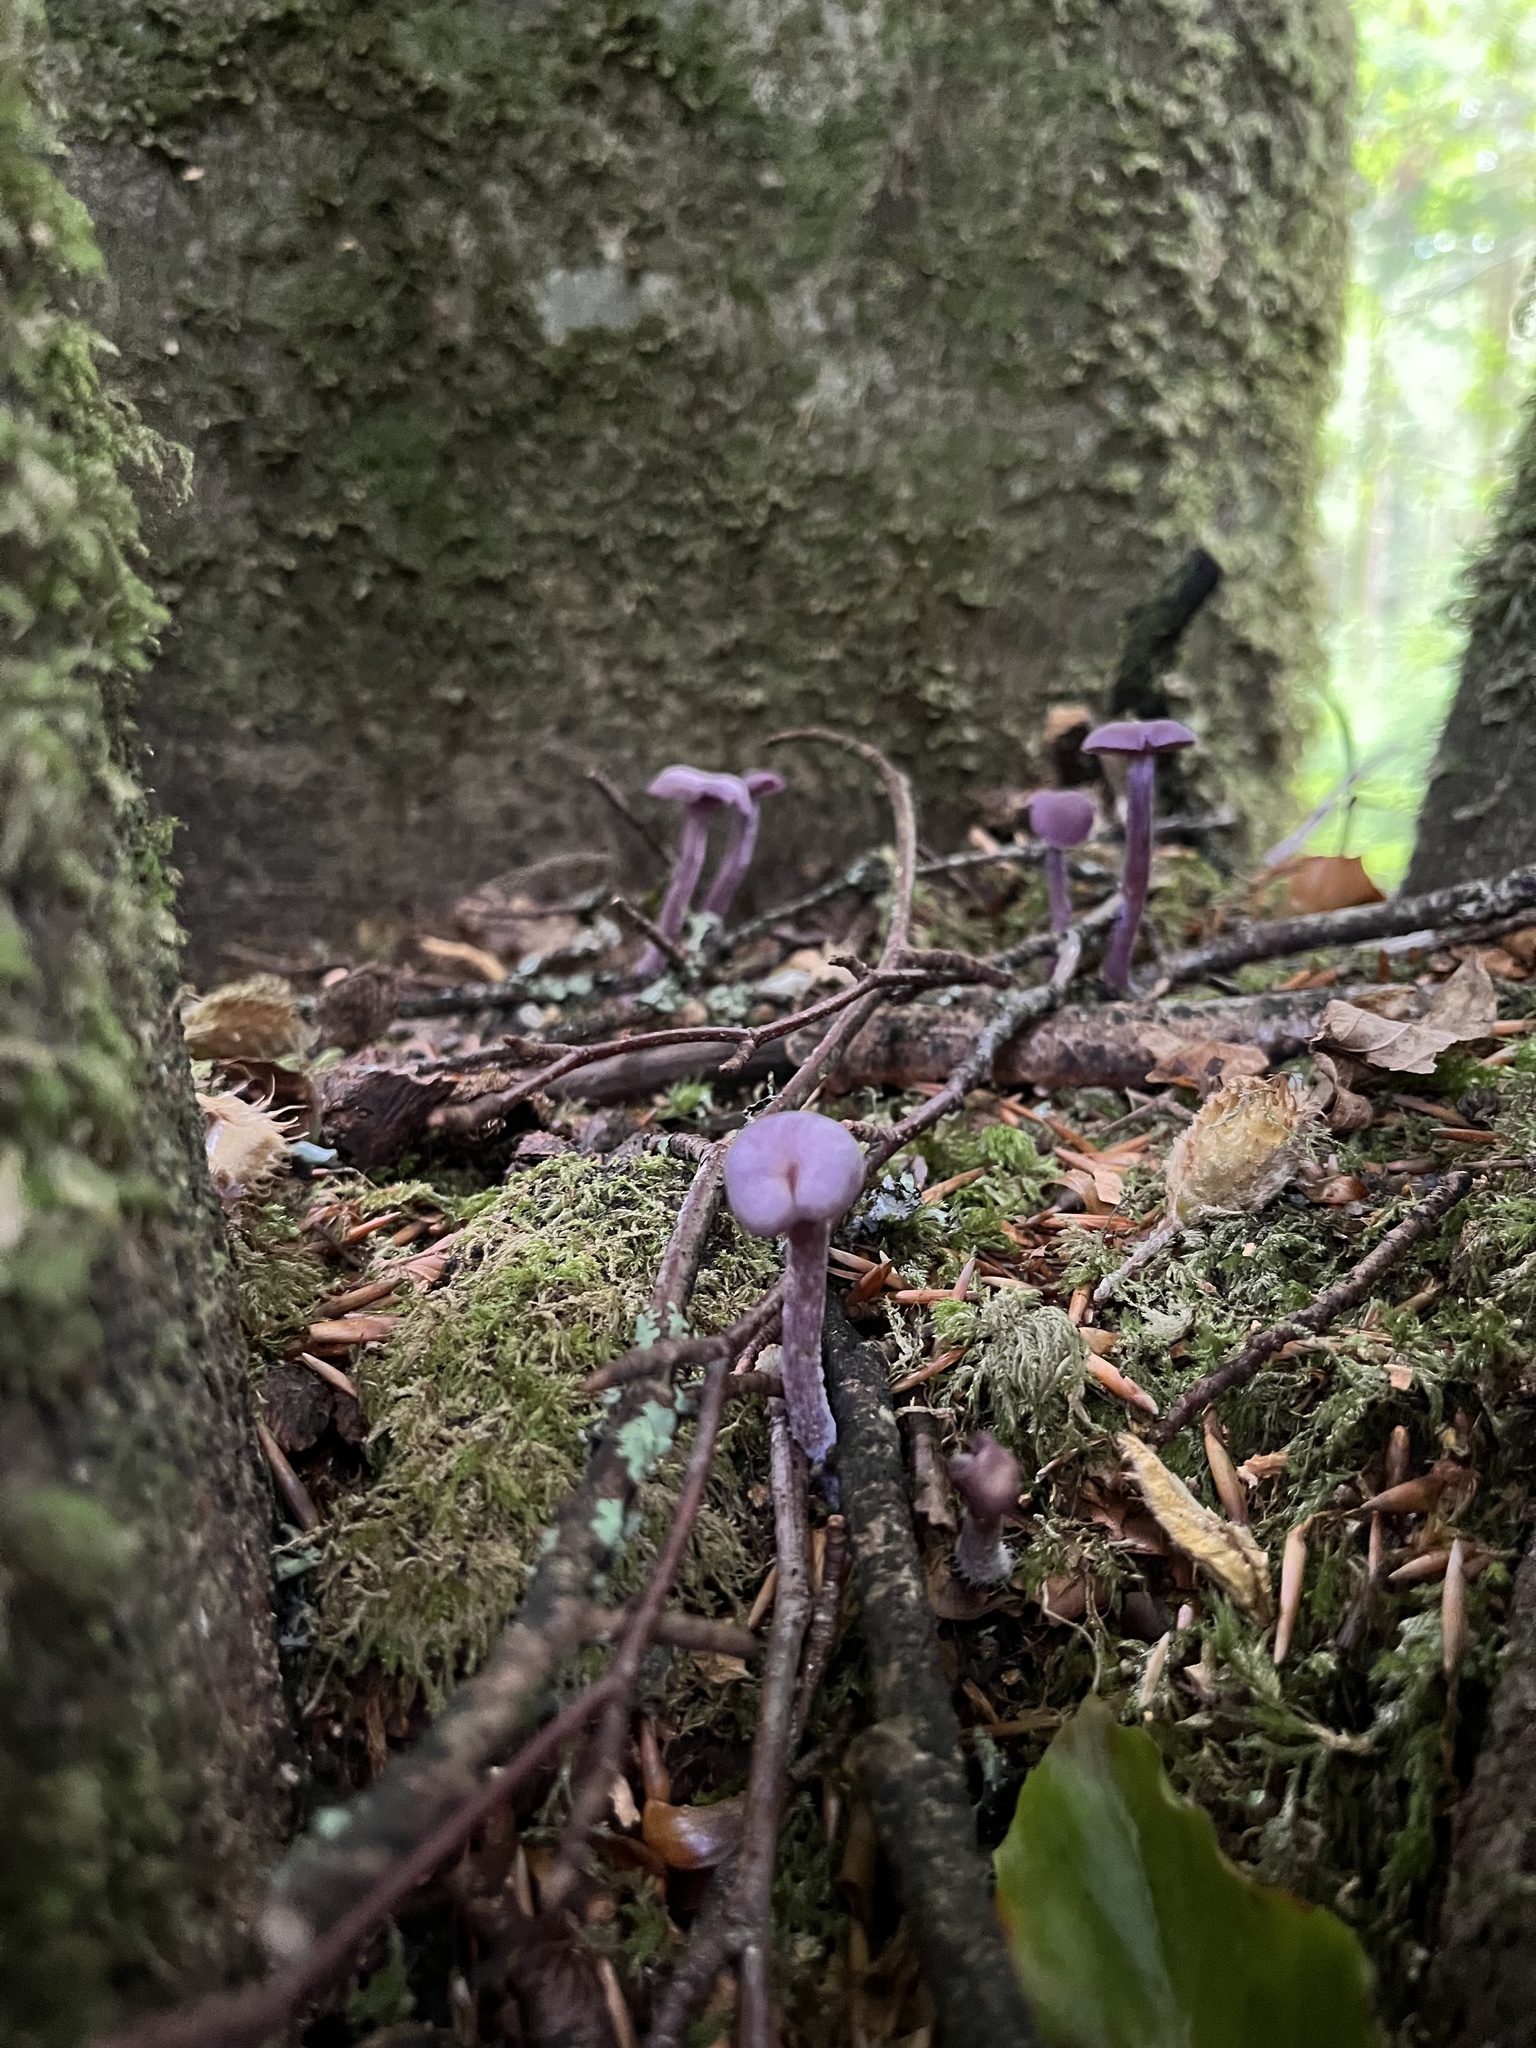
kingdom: Fungi
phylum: Basidiomycota
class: Agaricomycetes
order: Agaricales
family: Hydnangiaceae
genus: Laccaria
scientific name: Laccaria amethystina
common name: Amethyst deceiver
